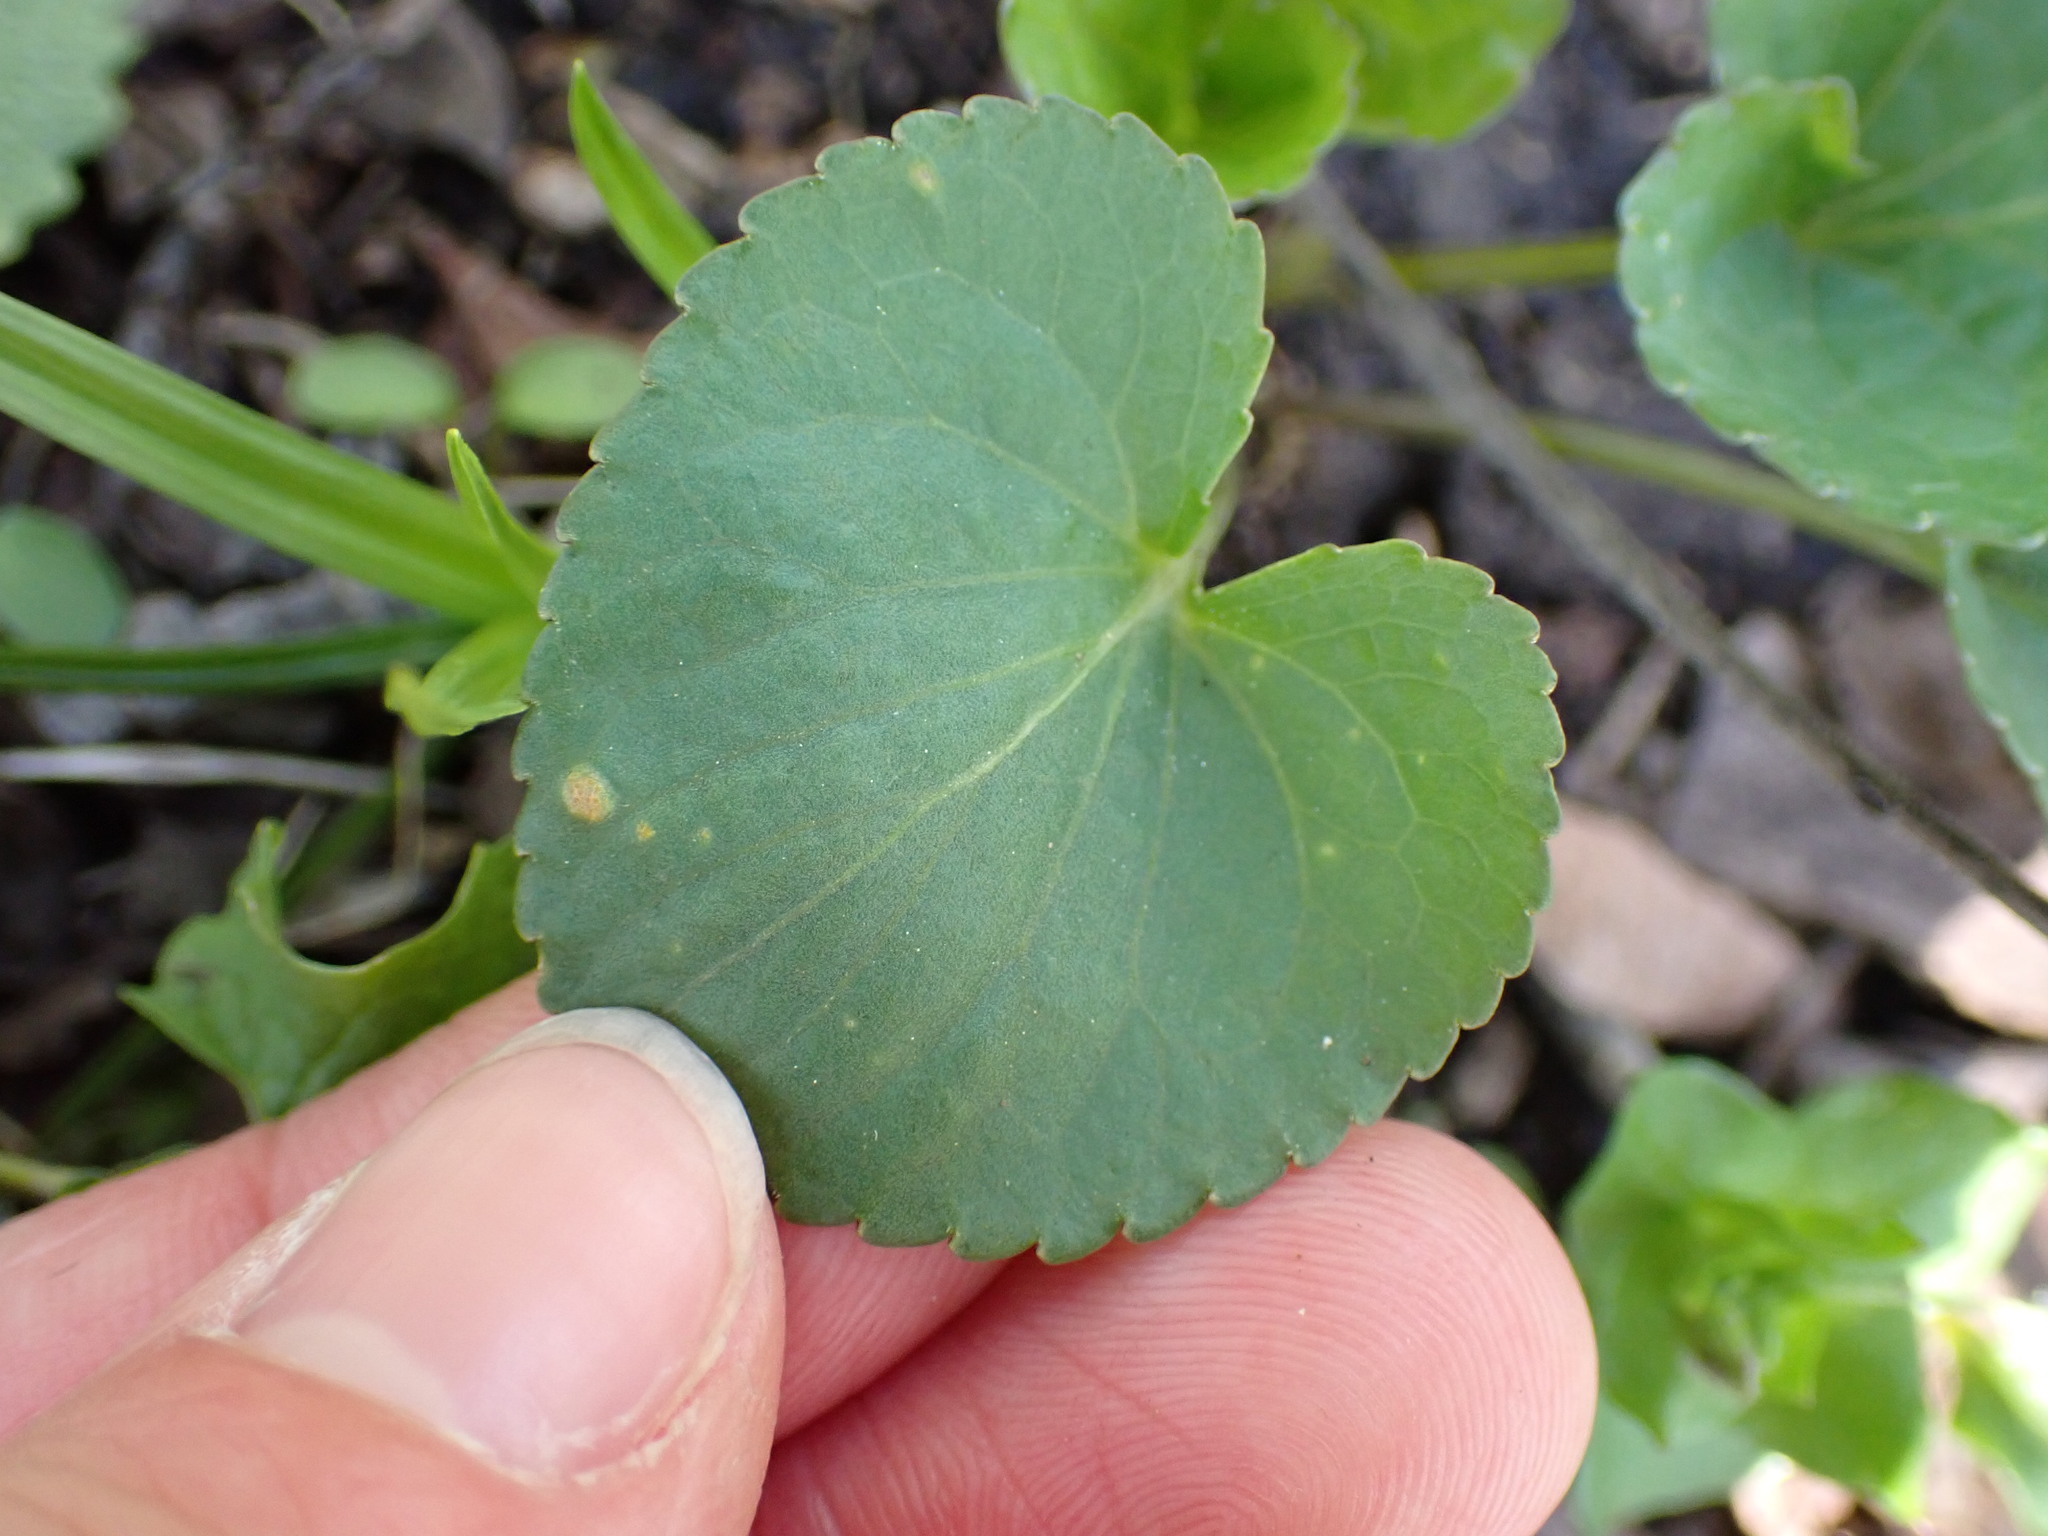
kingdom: Fungi
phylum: Basidiomycota
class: Pucciniomycetes
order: Pucciniales
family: Pucciniaceae
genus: Puccinia
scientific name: Puccinia violae
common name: Violet rust
